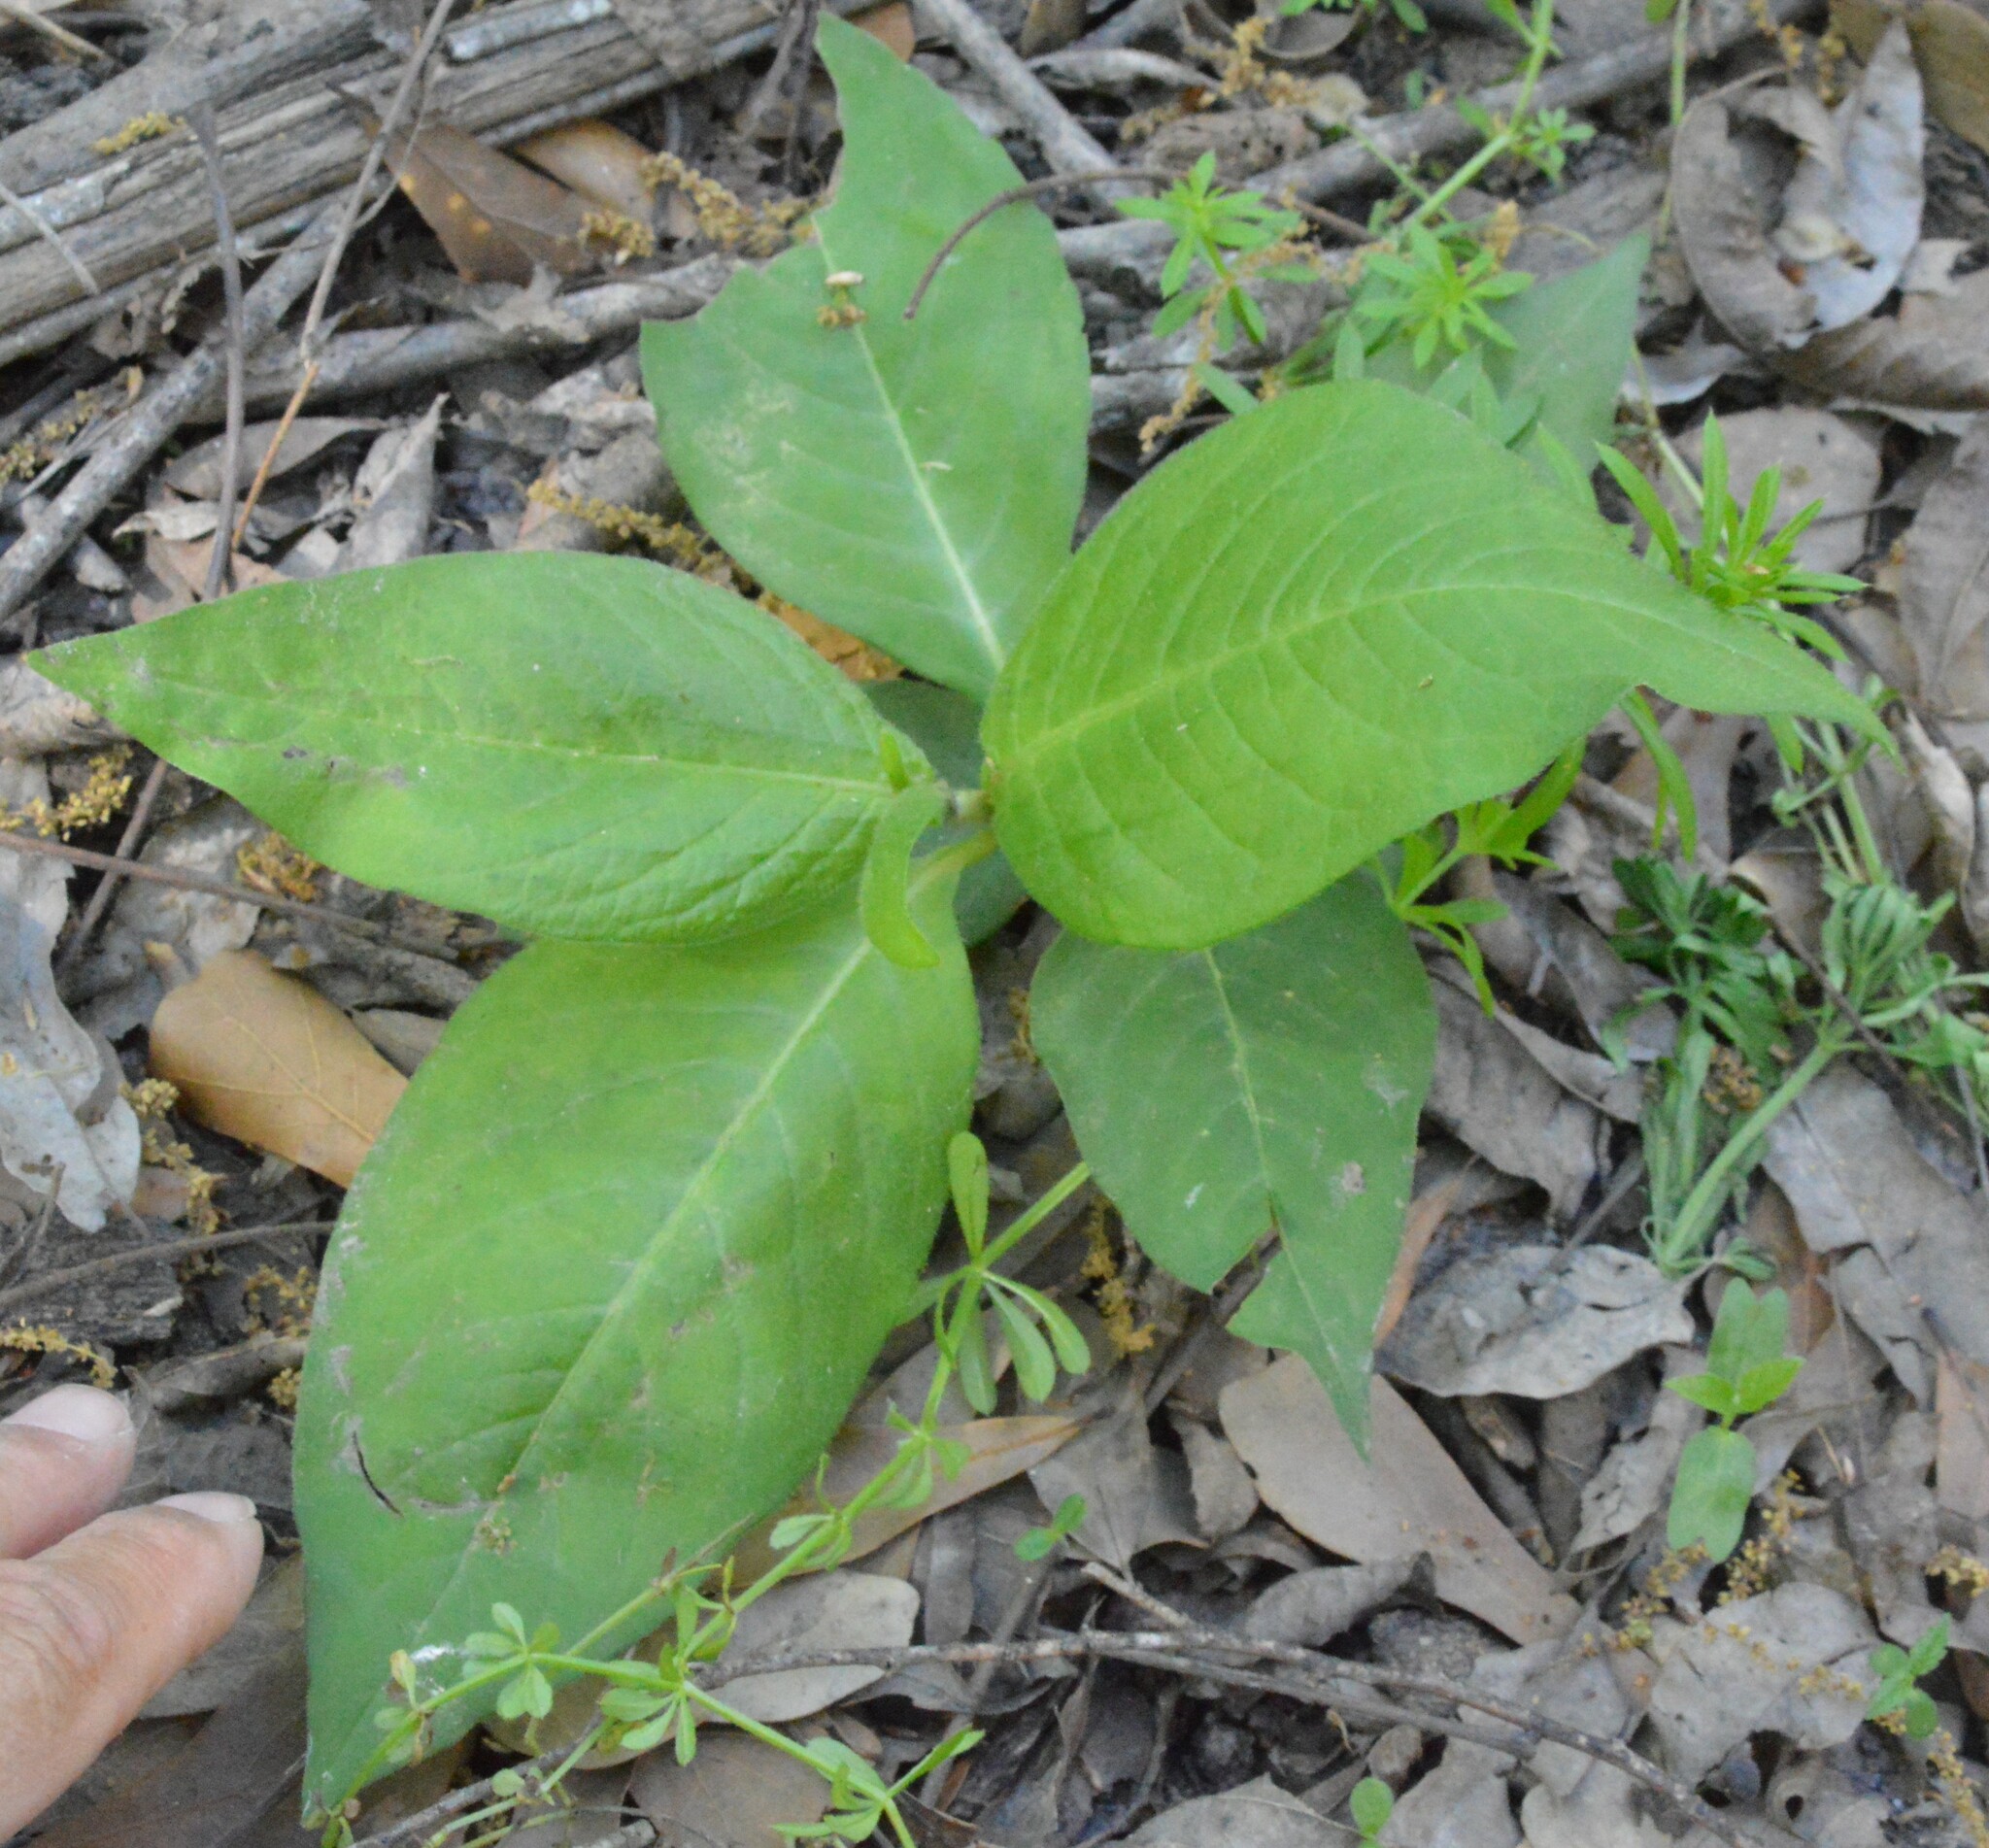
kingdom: Plantae
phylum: Tracheophyta
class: Magnoliopsida
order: Caryophyllales
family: Polygonaceae
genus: Persicaria
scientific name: Persicaria virginiana
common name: Jumpseed
